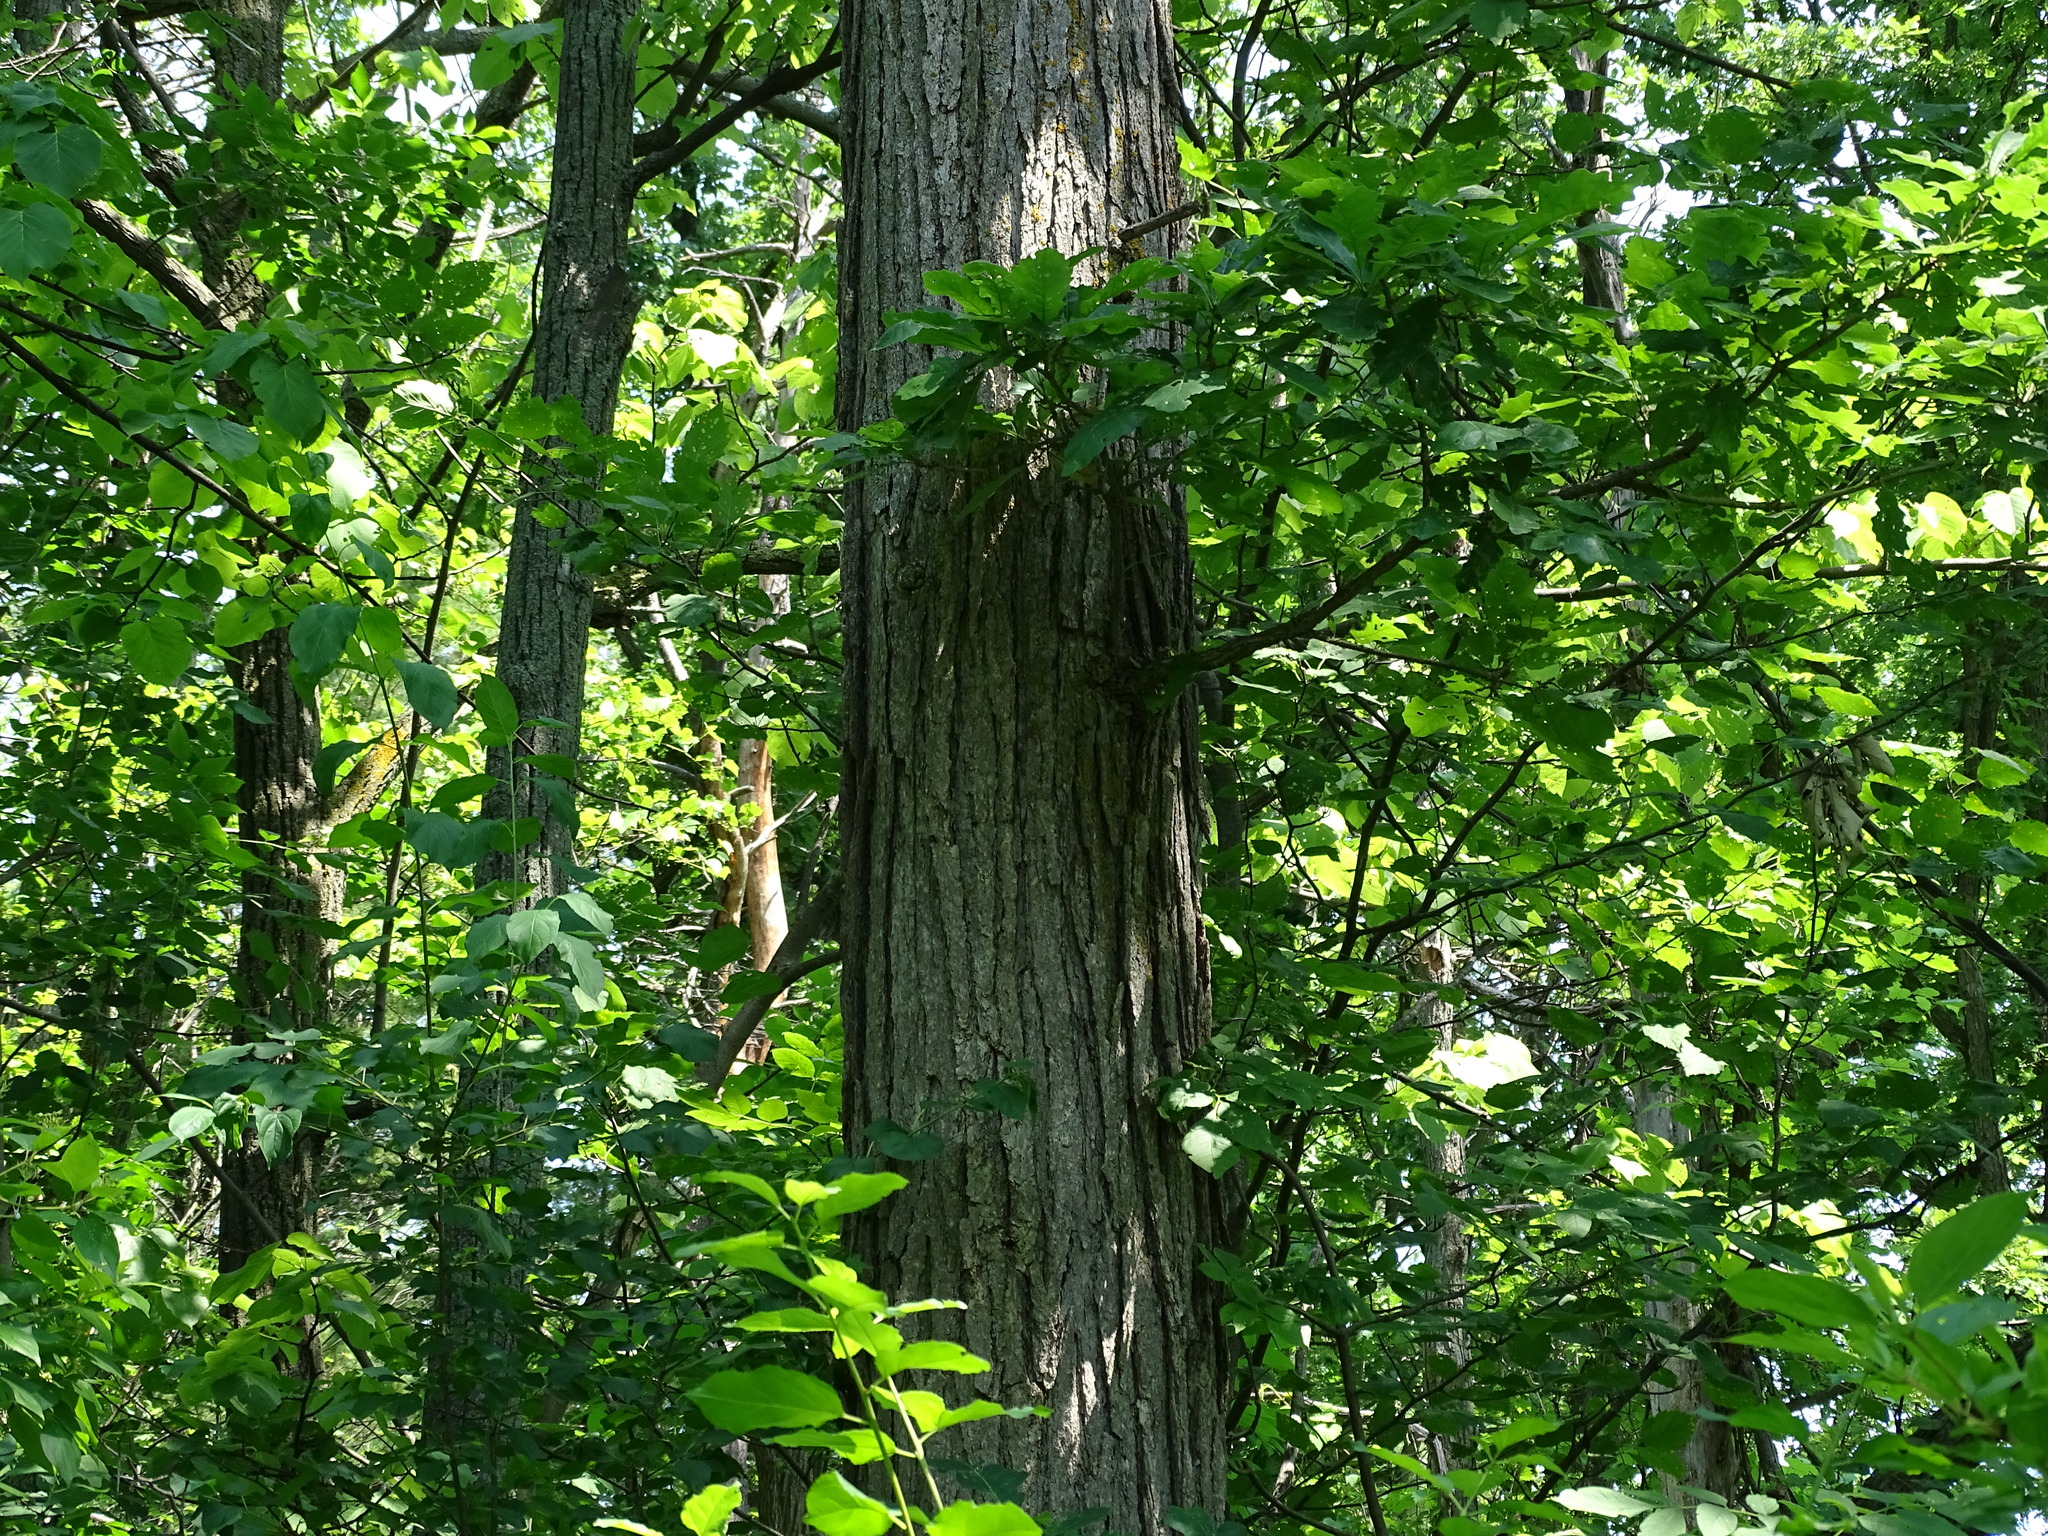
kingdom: Plantae
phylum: Tracheophyta
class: Magnoliopsida
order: Fagales
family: Fagaceae
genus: Quercus
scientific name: Quercus macrocarpa
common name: Bur oak
